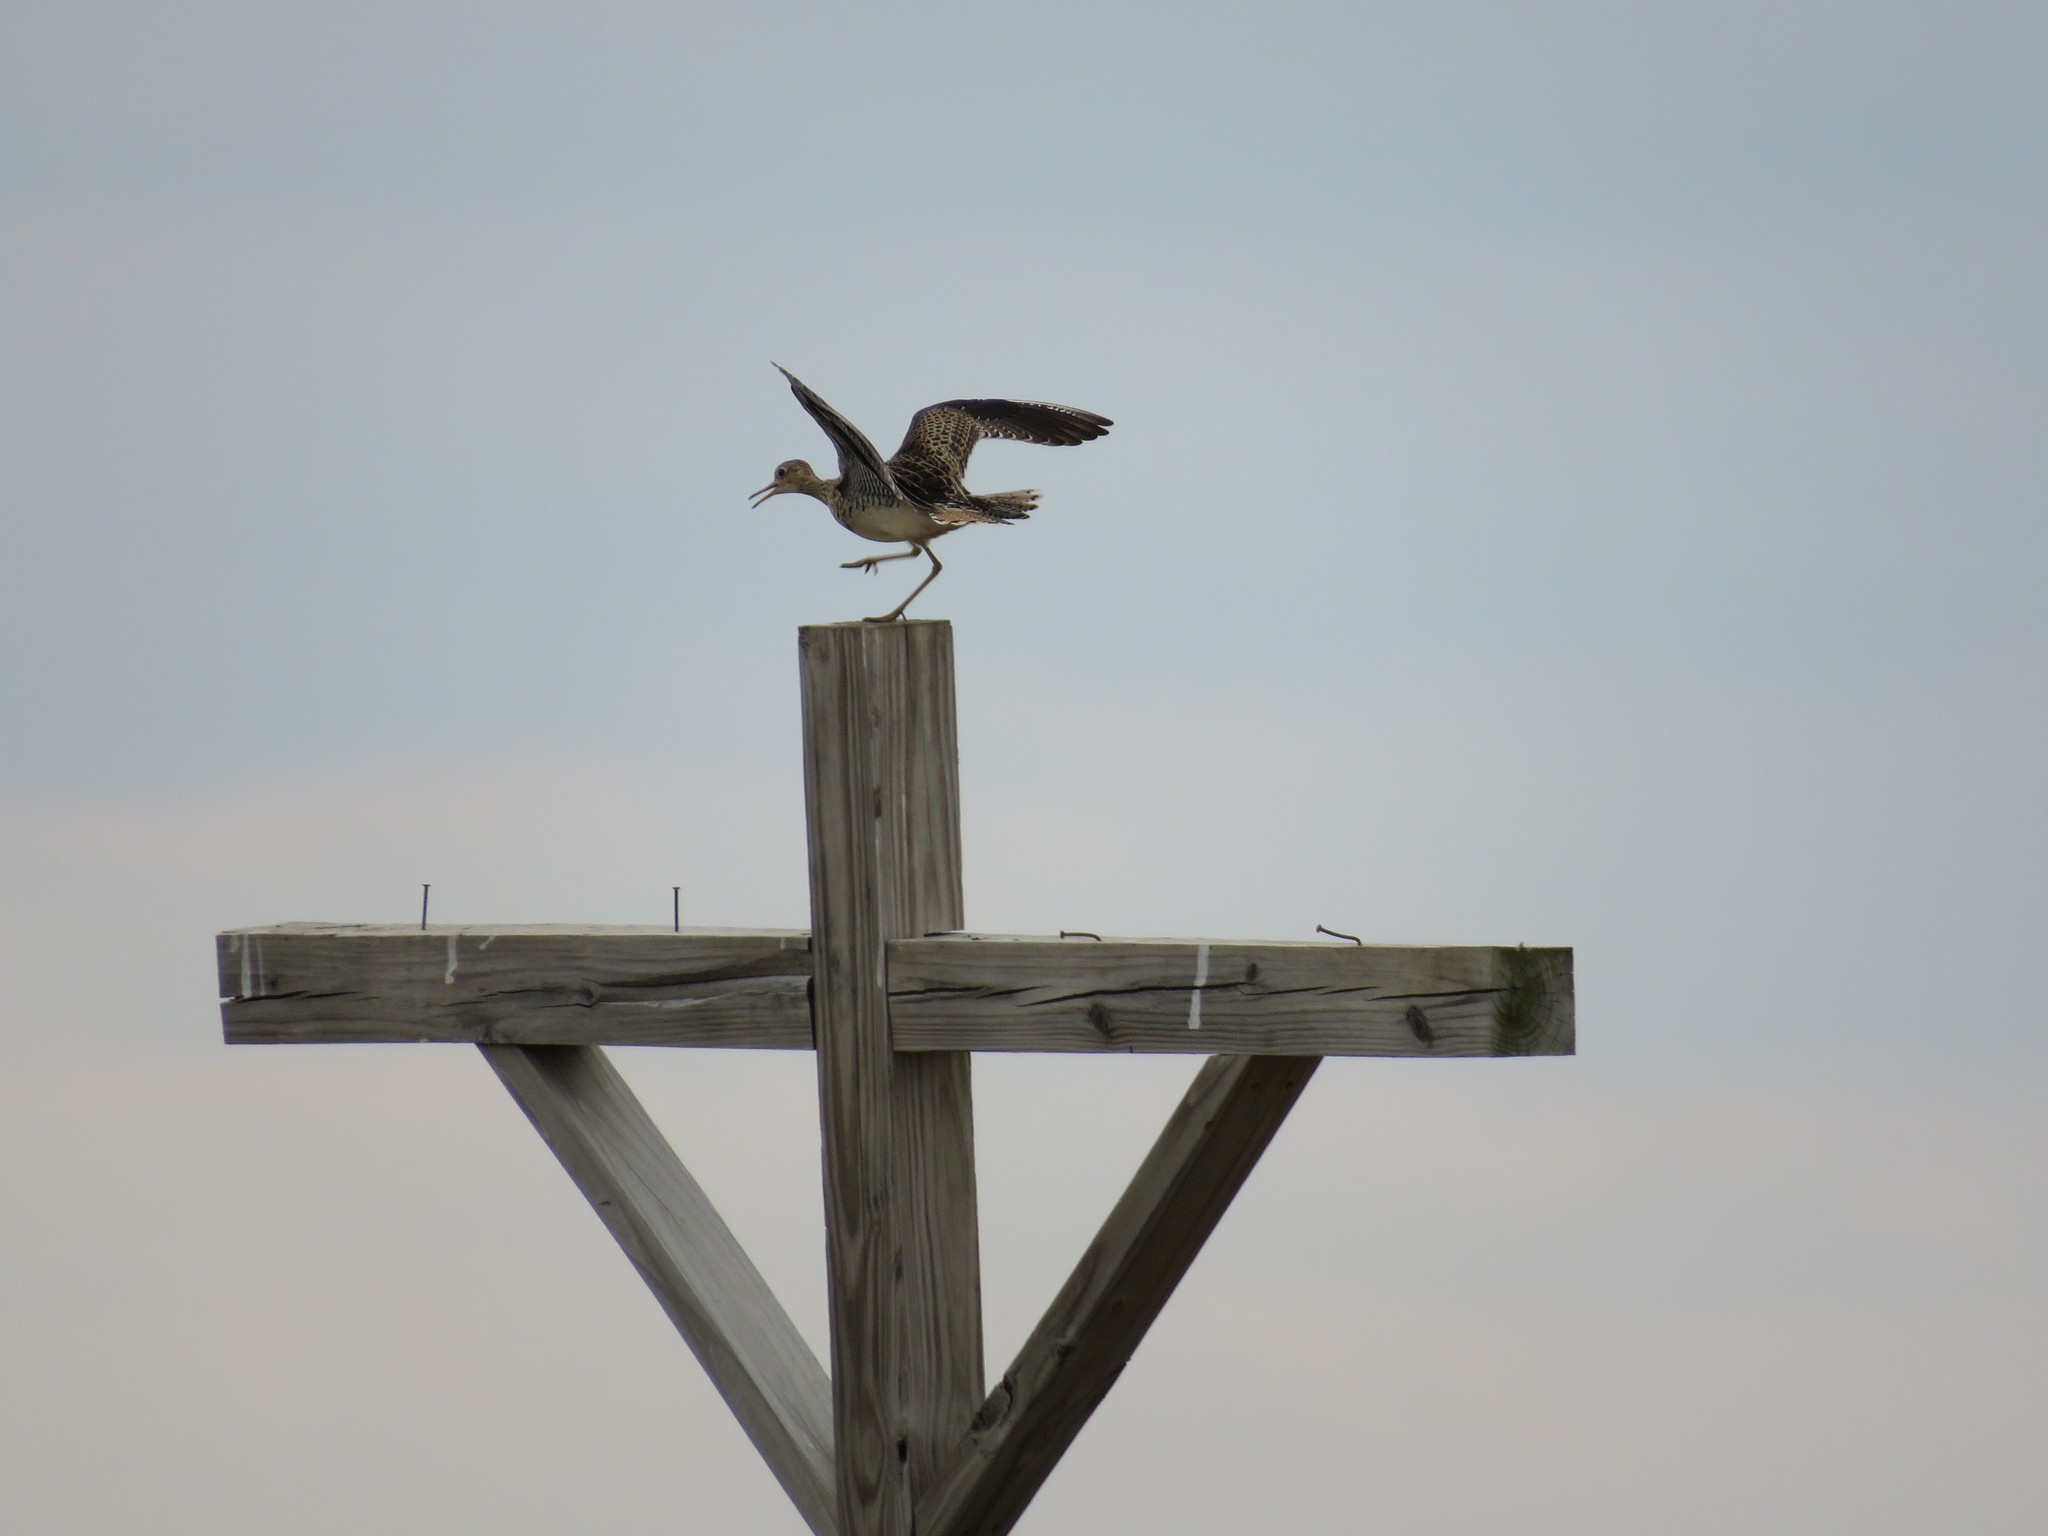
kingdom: Animalia
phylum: Chordata
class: Aves
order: Charadriiformes
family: Scolopacidae
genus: Bartramia
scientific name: Bartramia longicauda
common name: Upland sandpiper
